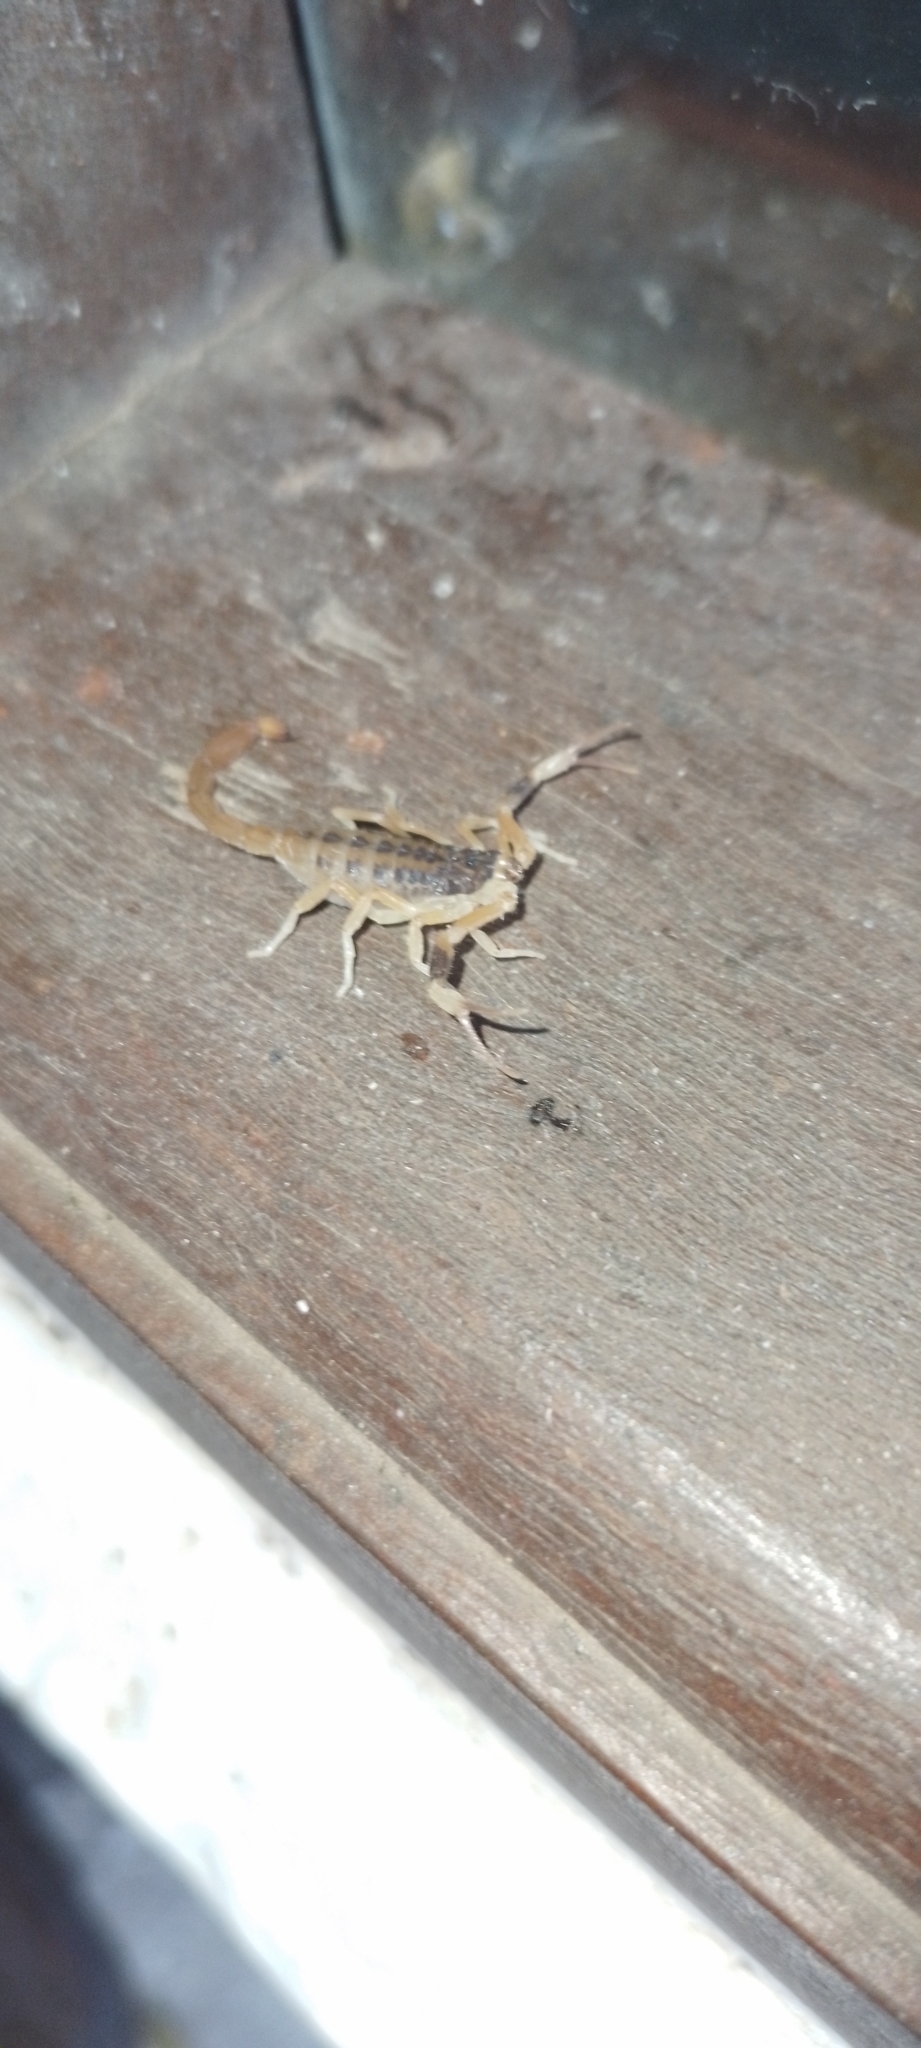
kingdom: Animalia
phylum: Arthropoda
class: Arachnida
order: Scorpiones
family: Buthidae
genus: Tityus
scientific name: Tityus carrilloi
